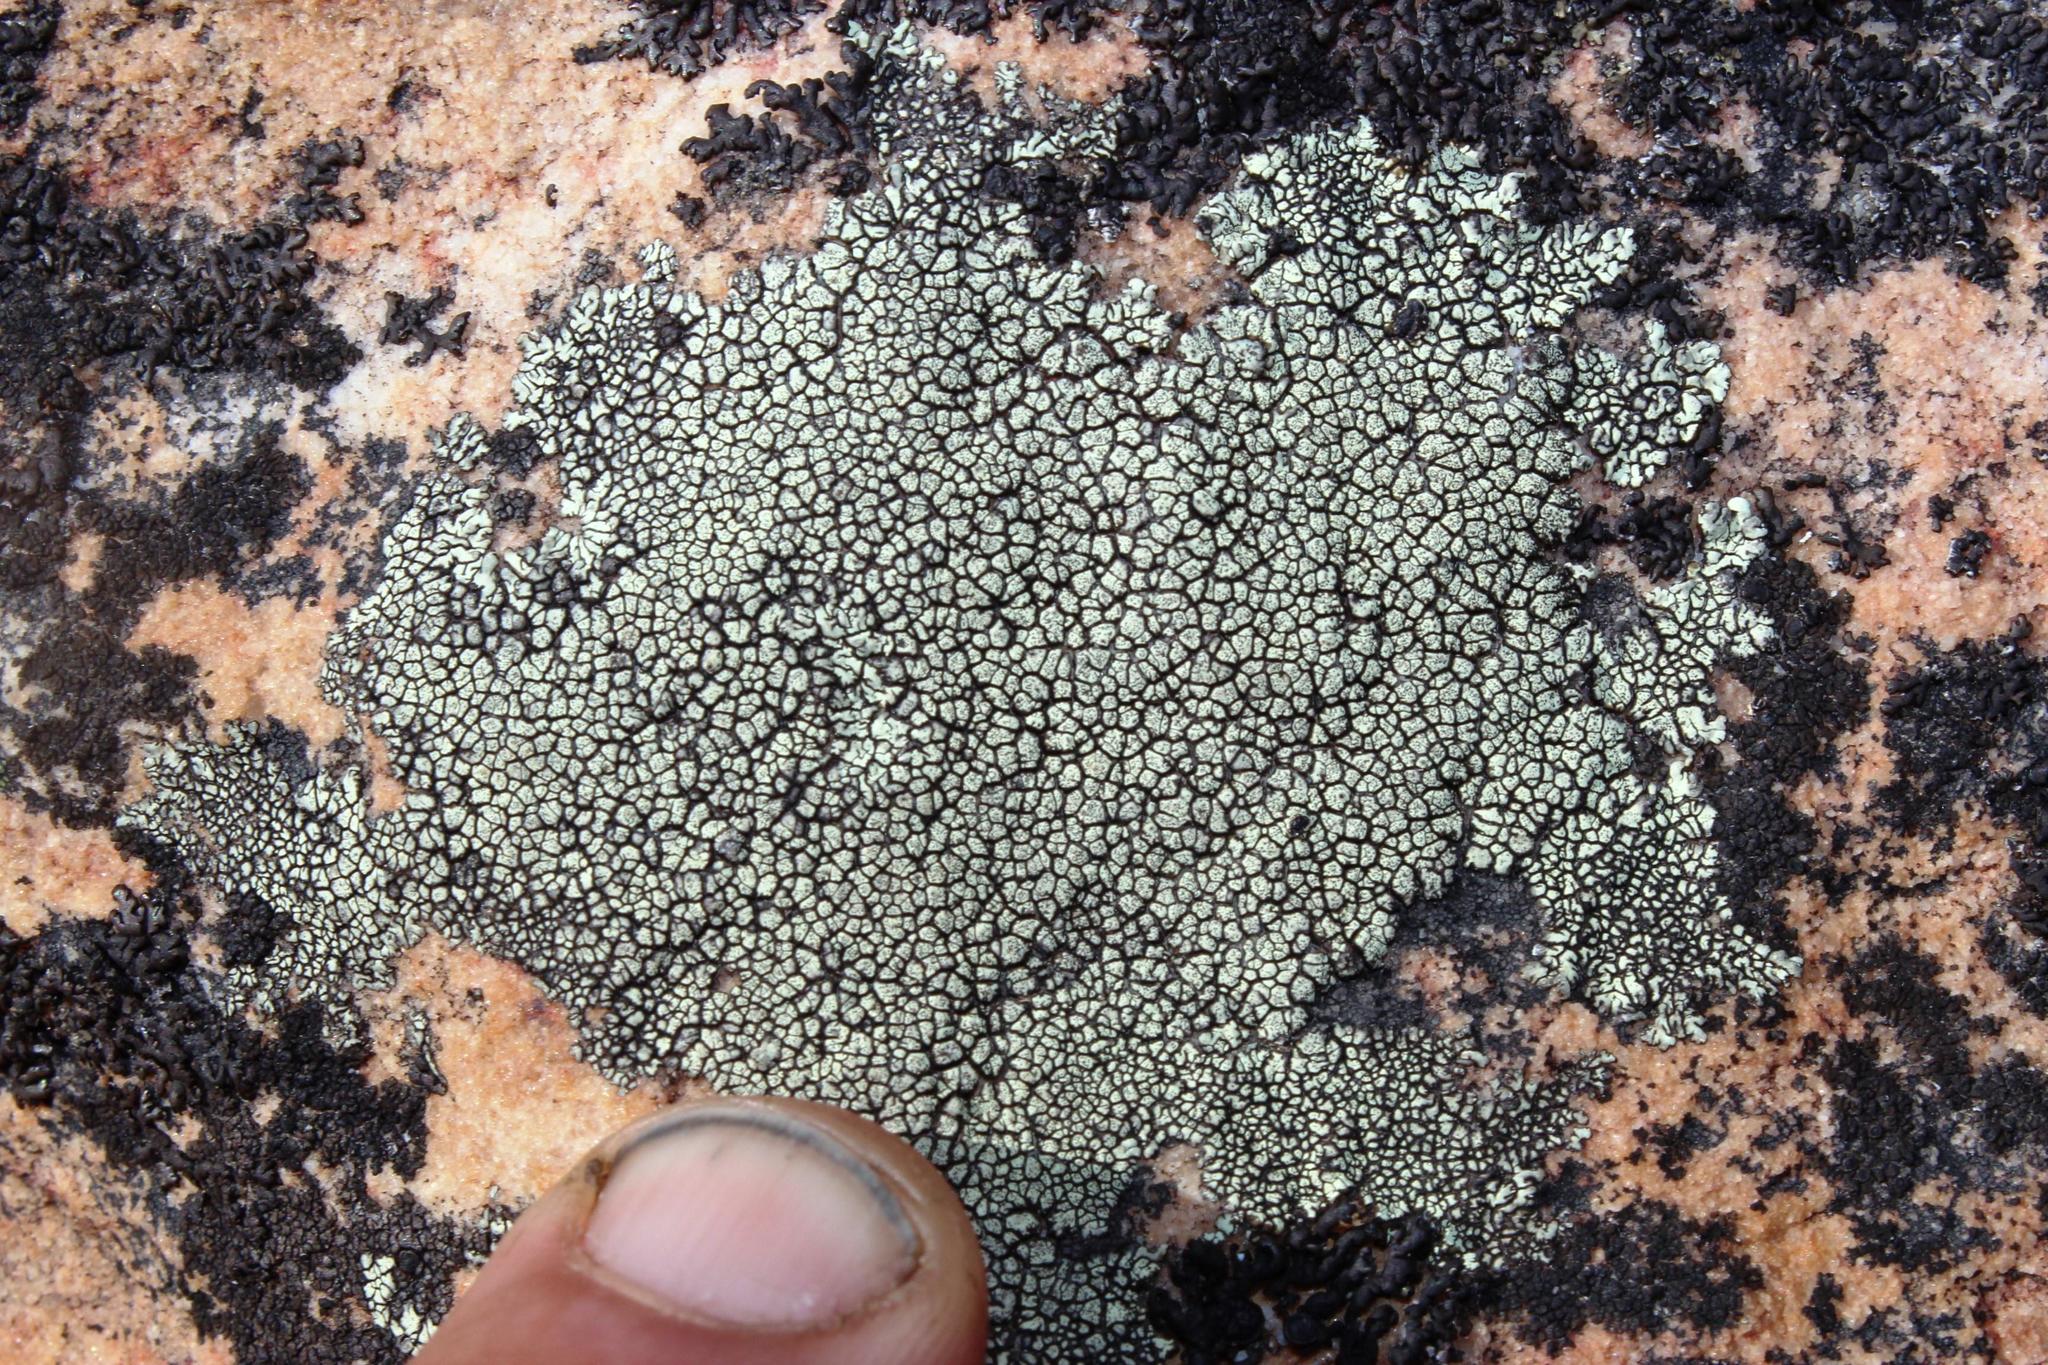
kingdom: Fungi
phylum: Ascomycota
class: Lecanoromycetes
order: Caliciales
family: Caliciaceae
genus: Dimelaena
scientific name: Dimelaena oreina
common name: Golden moonglow lichen
